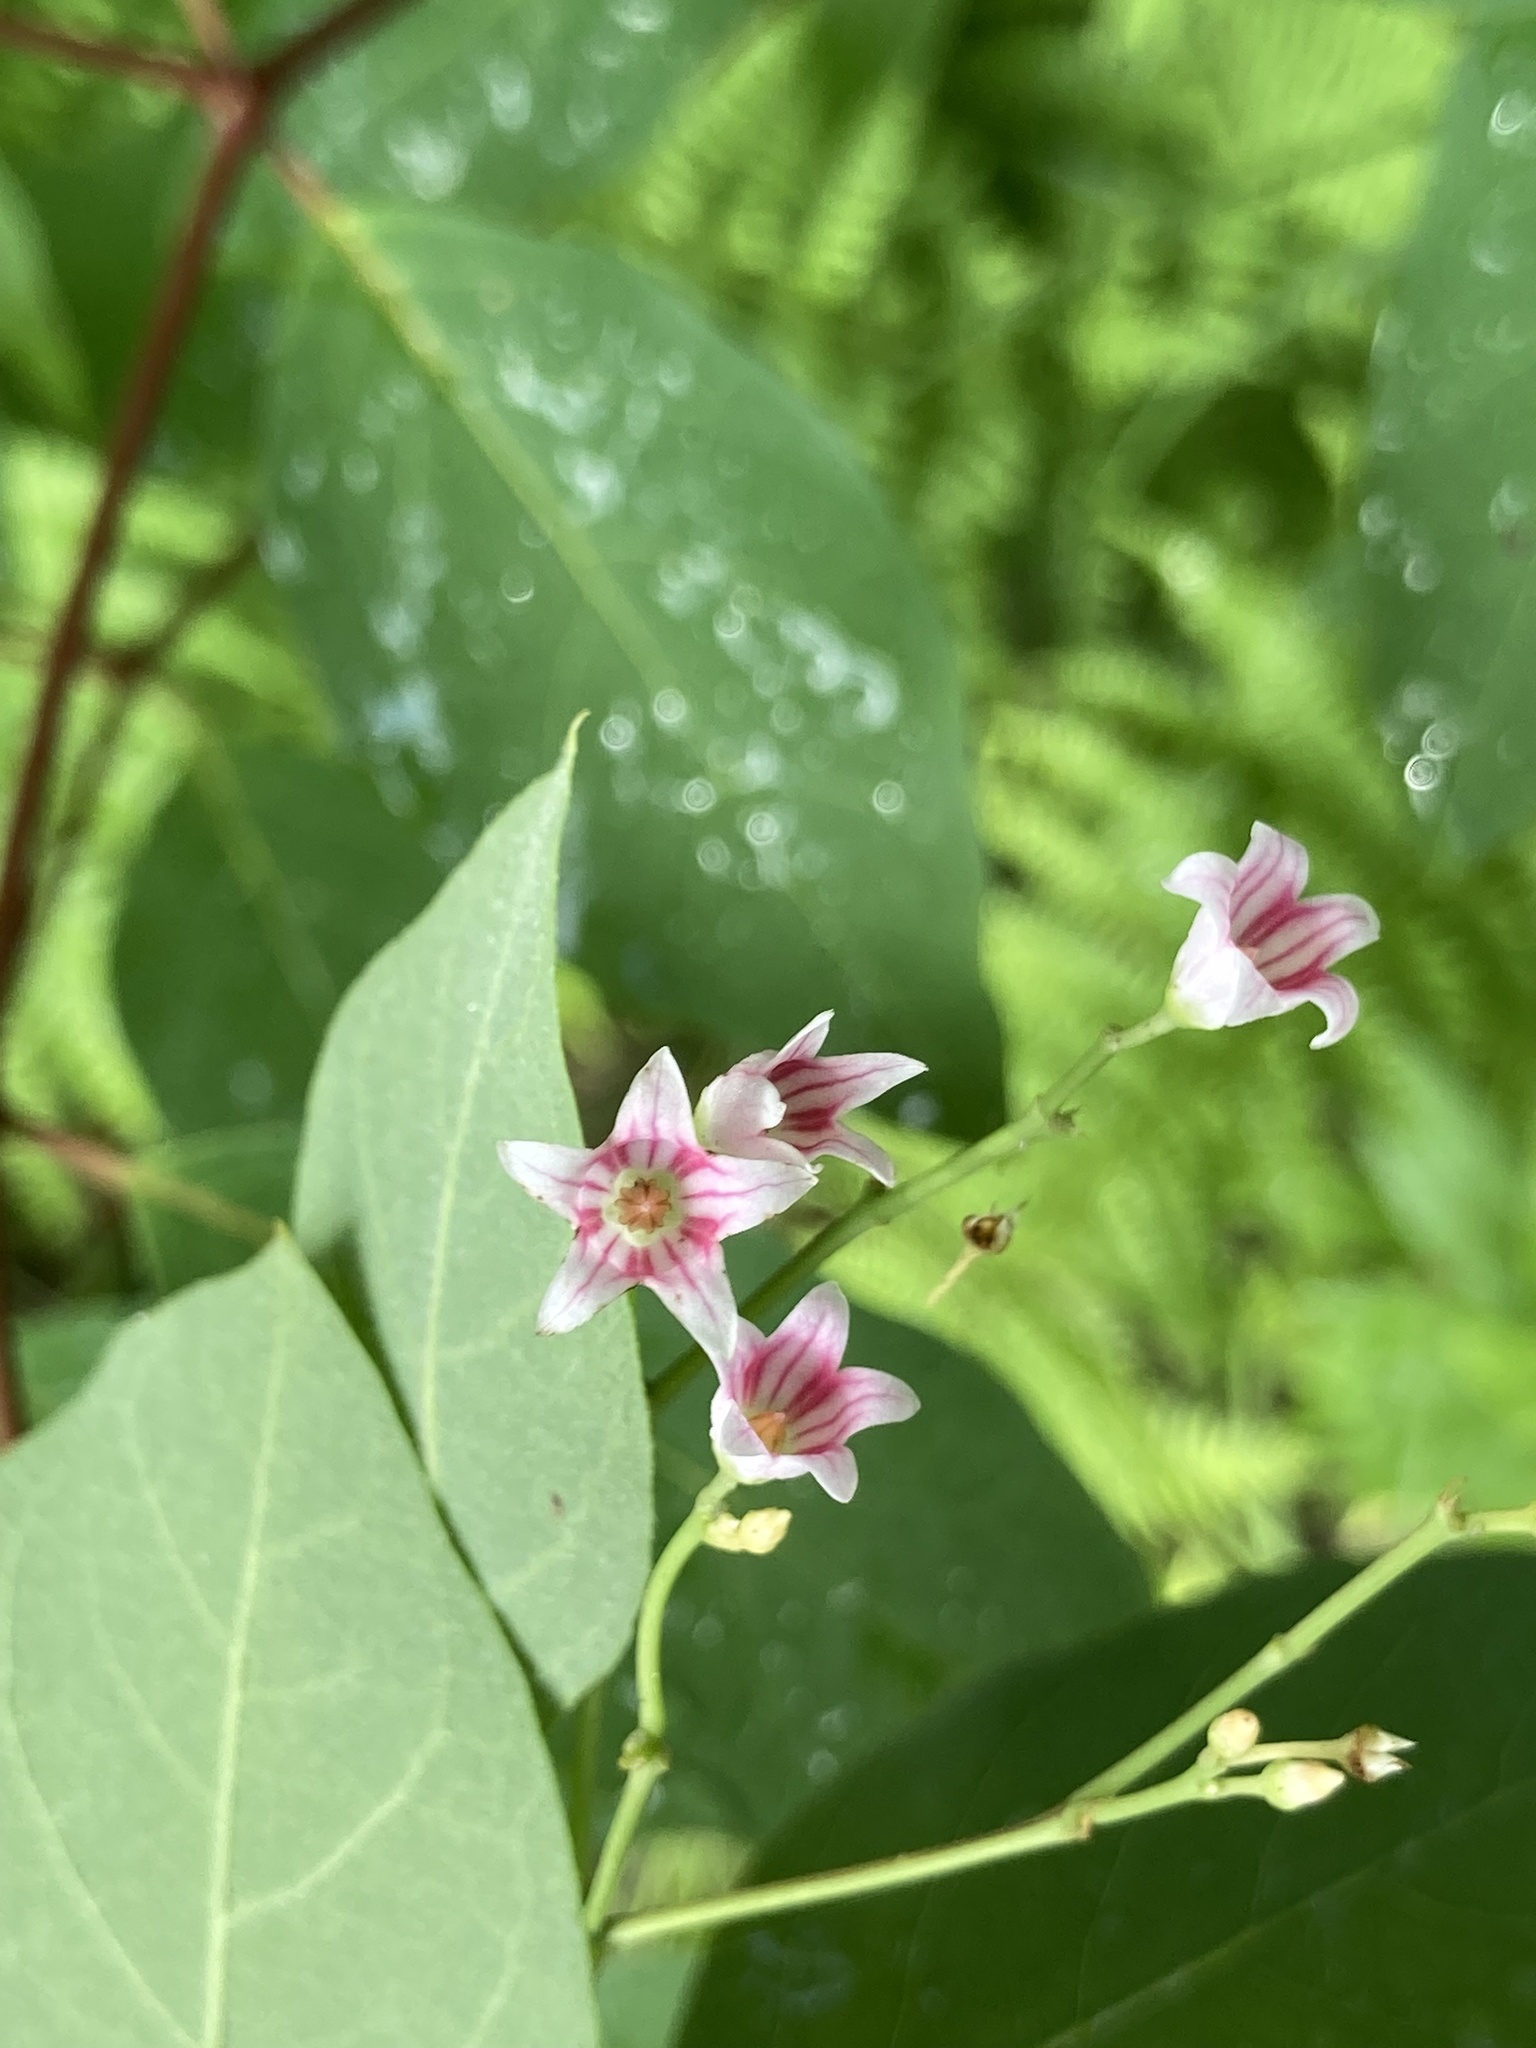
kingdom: Plantae
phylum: Tracheophyta
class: Magnoliopsida
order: Gentianales
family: Apocynaceae
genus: Apocynum
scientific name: Apocynum androsaemifolium
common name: Spreading dogbane
